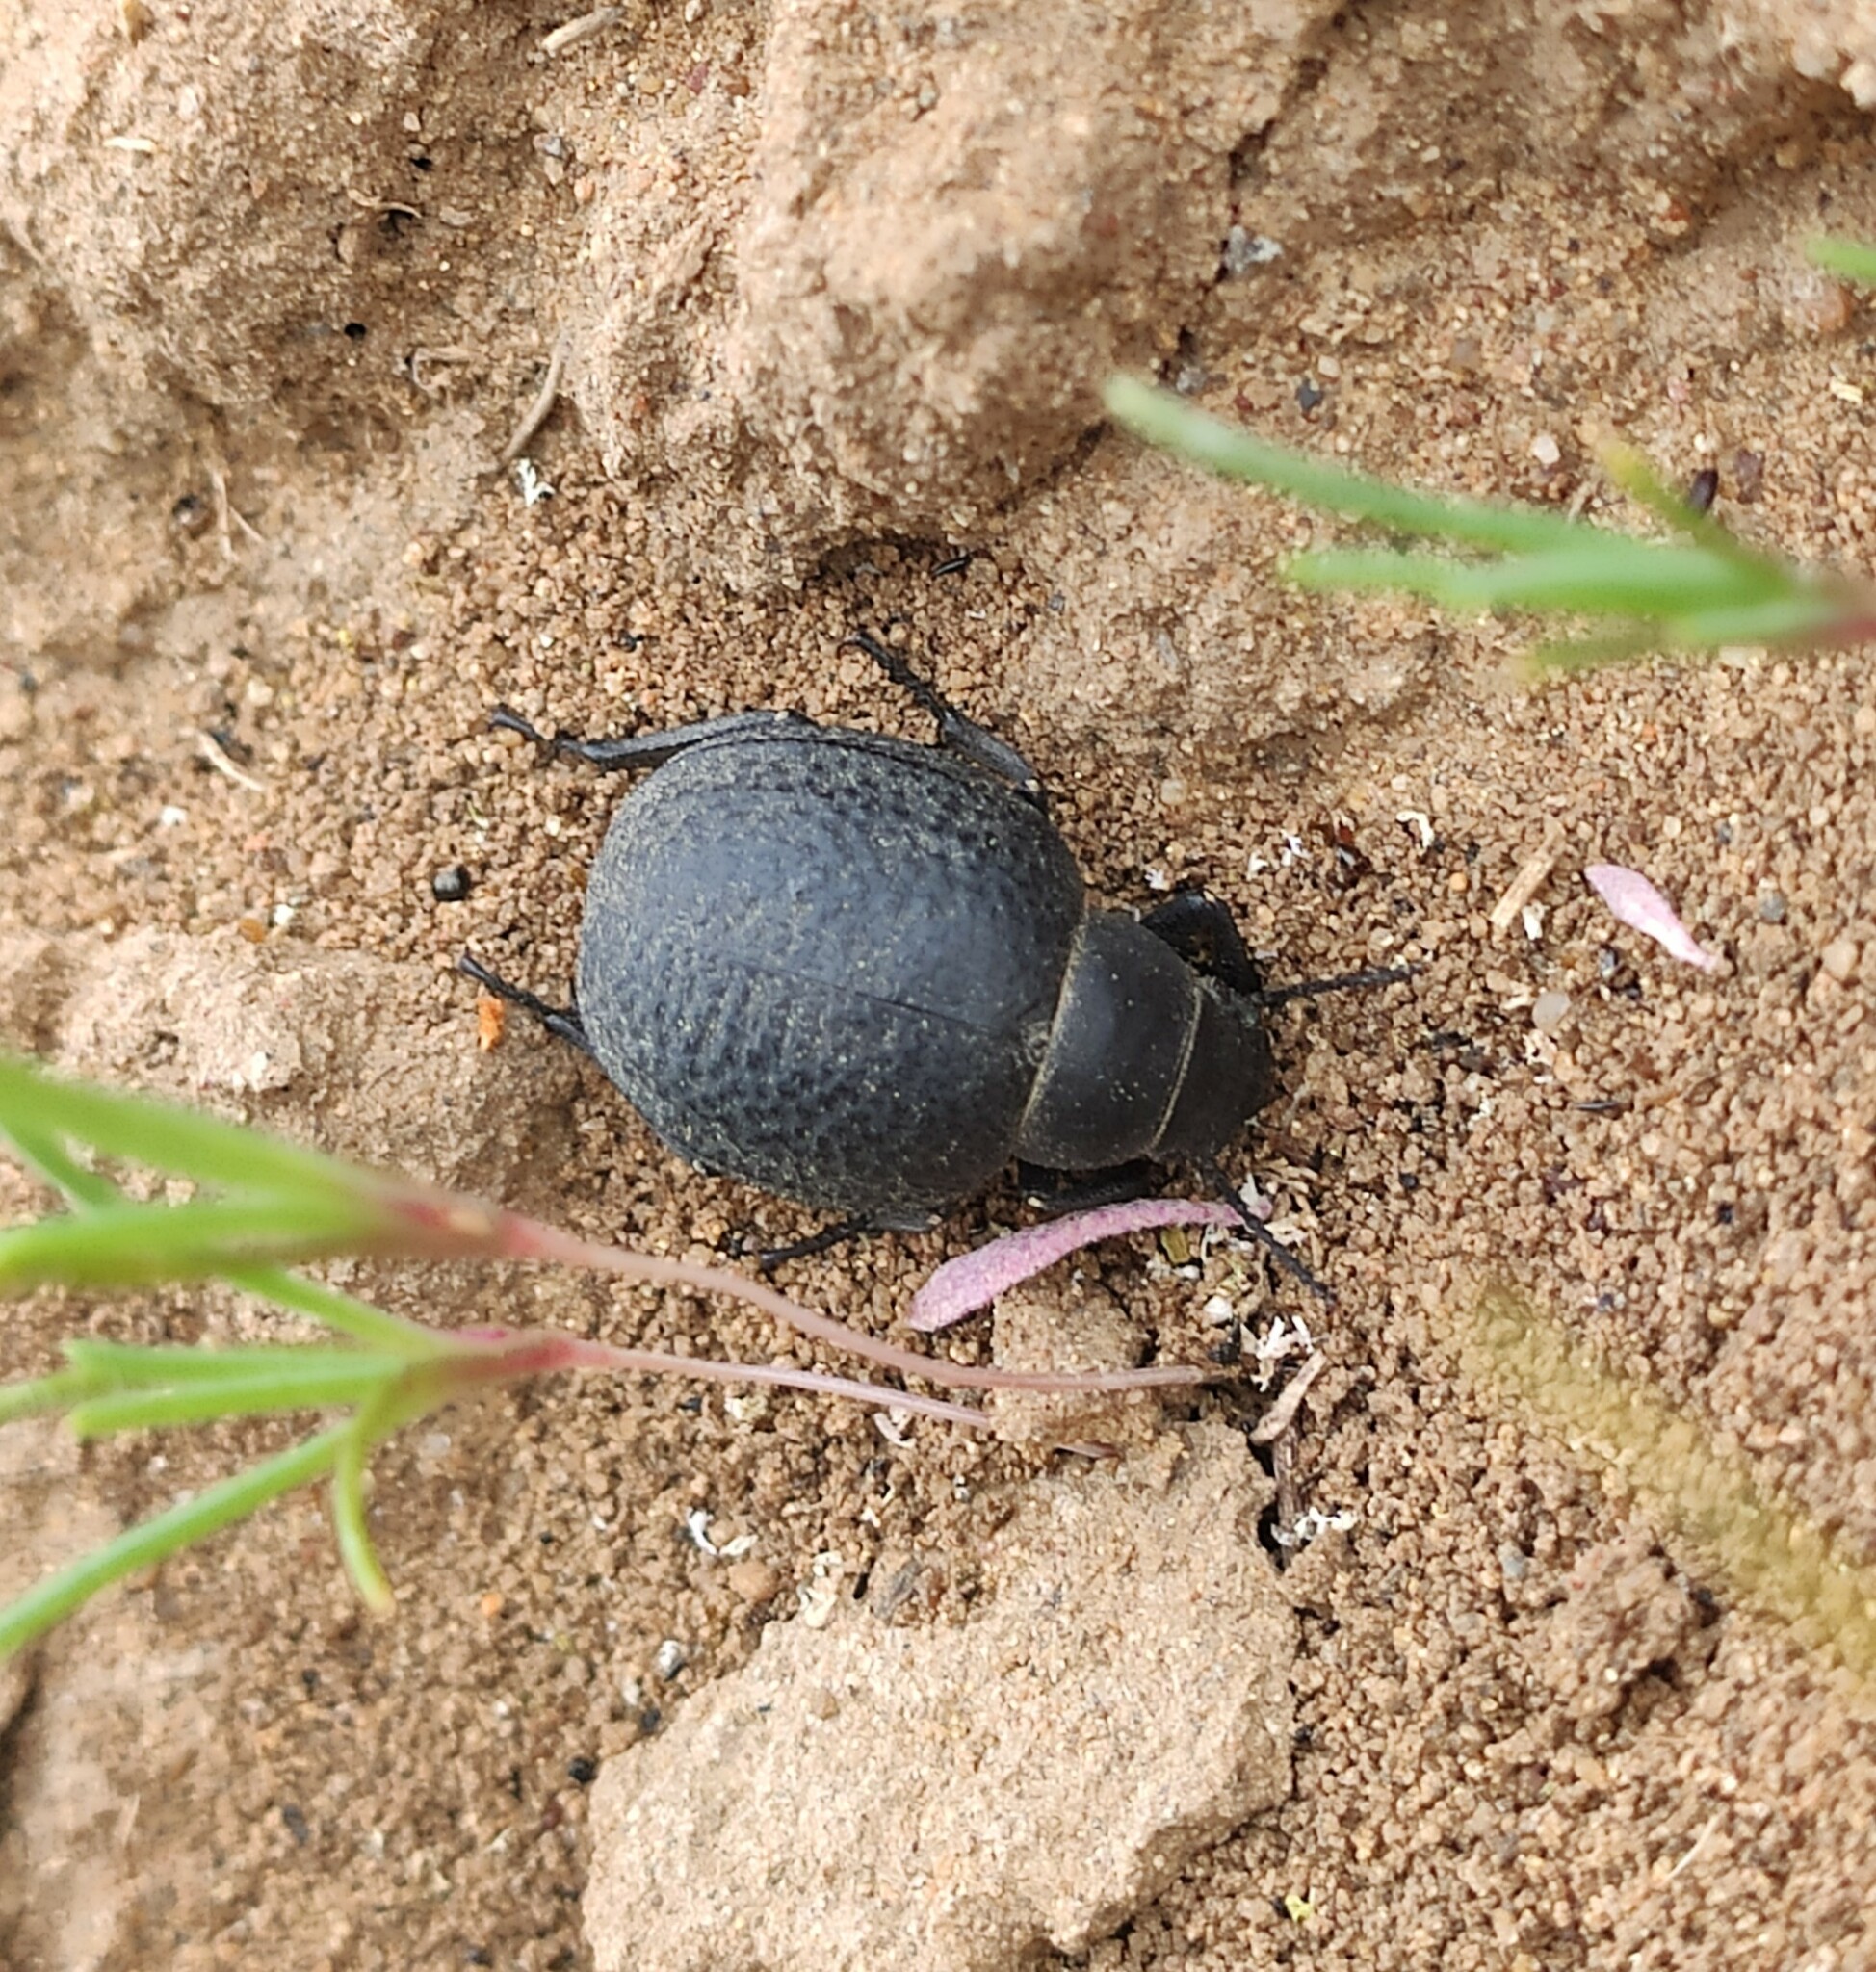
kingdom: Animalia
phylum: Arthropoda
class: Insecta
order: Coleoptera
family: Tenebrionidae
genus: Pimelia
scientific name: Pimelia subglobosa
